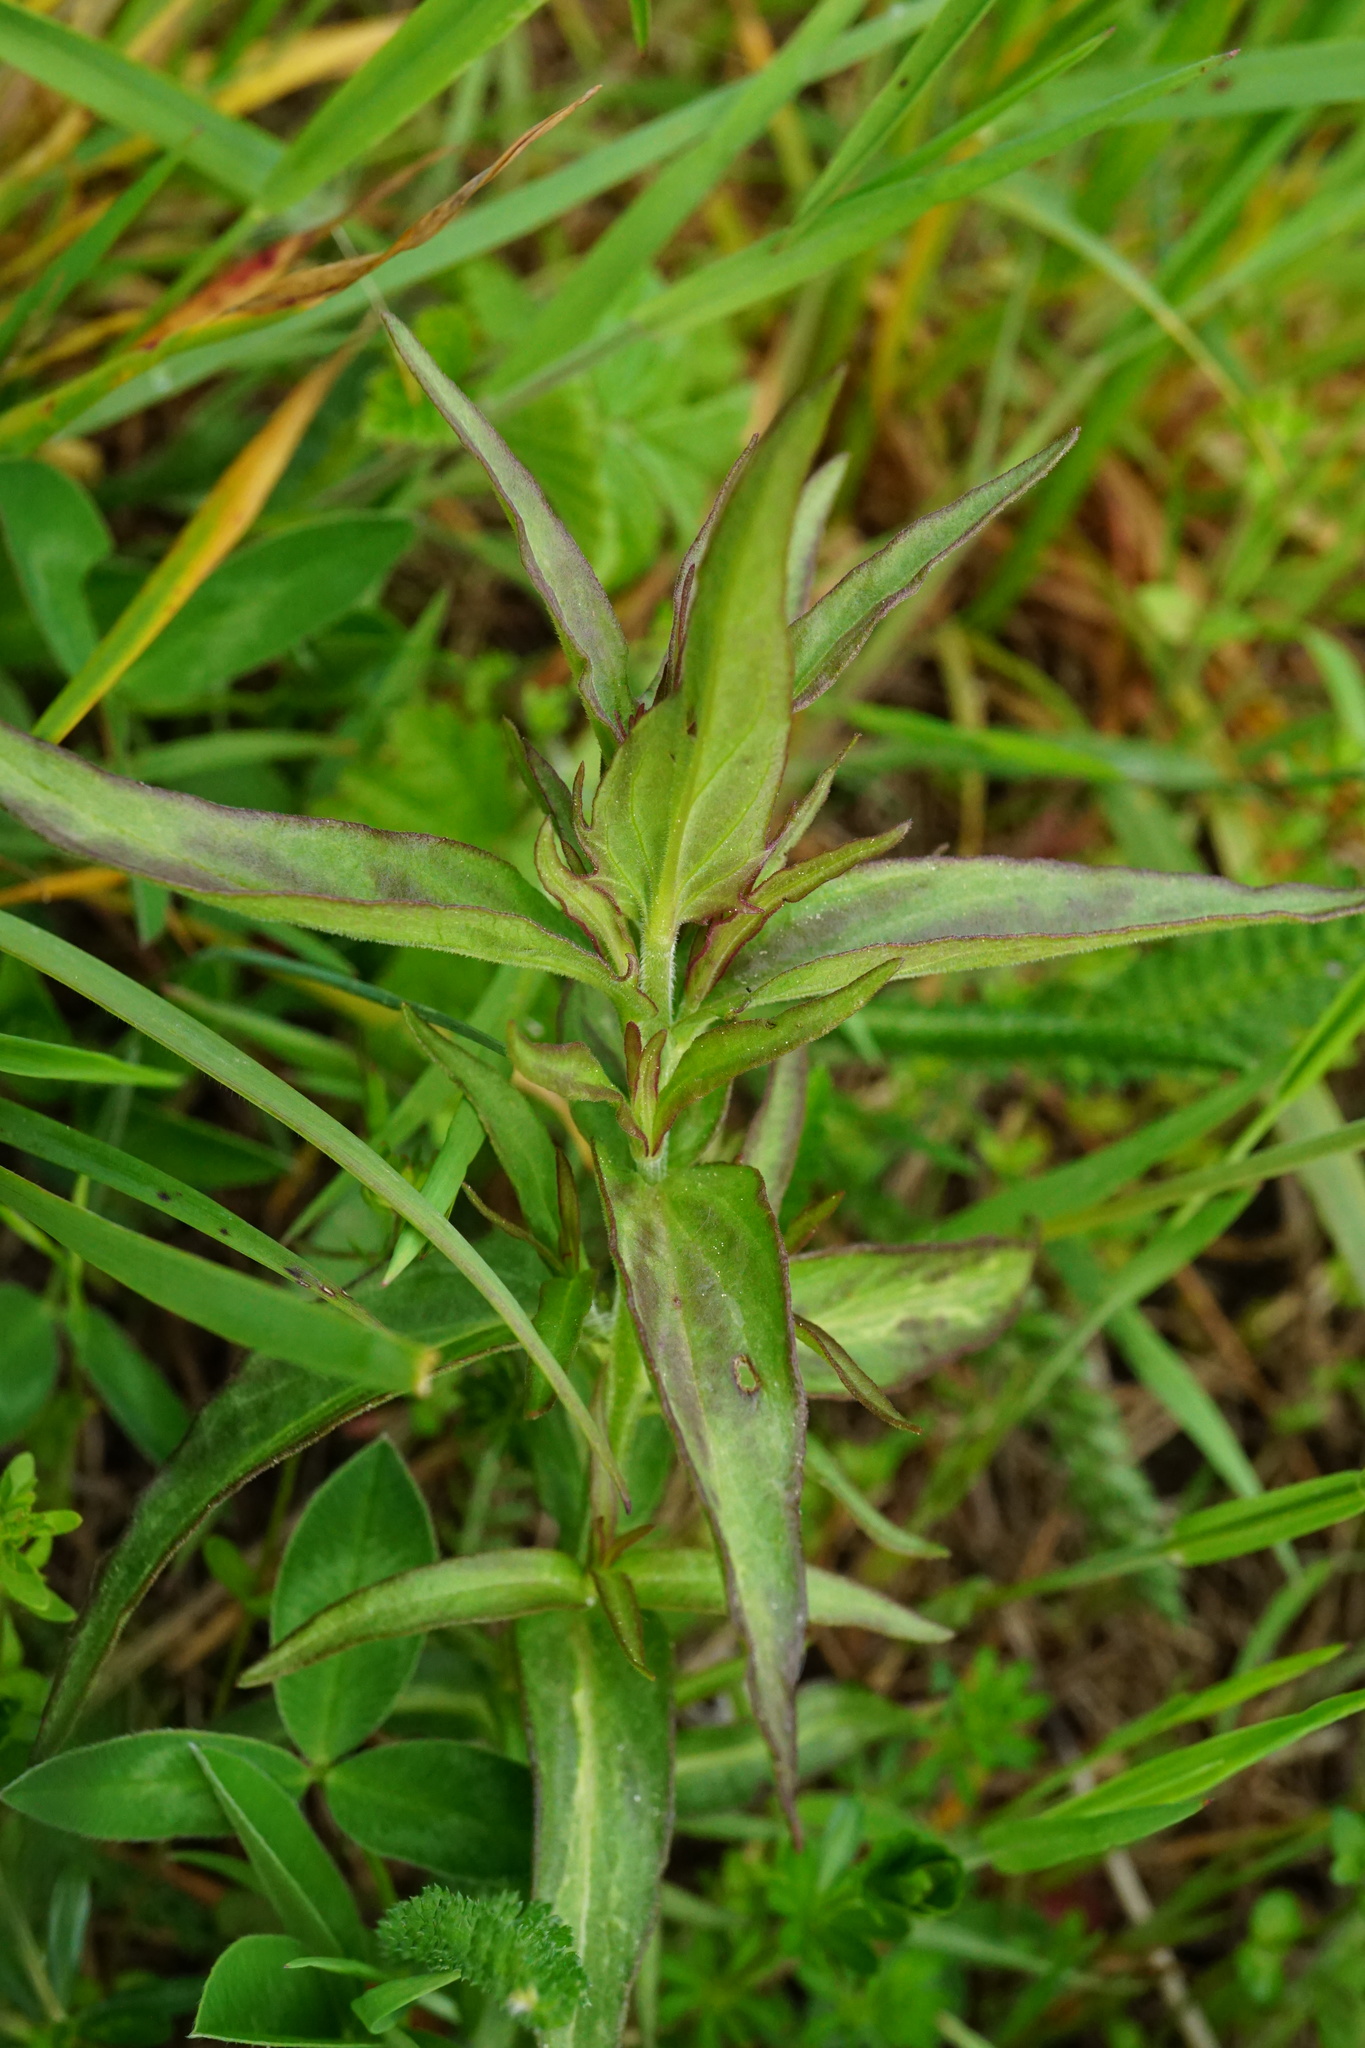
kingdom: Plantae
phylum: Tracheophyta
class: Magnoliopsida
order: Lamiales
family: Orobanchaceae
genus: Melampyrum
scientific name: Melampyrum arvense
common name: Field cow-wheat
